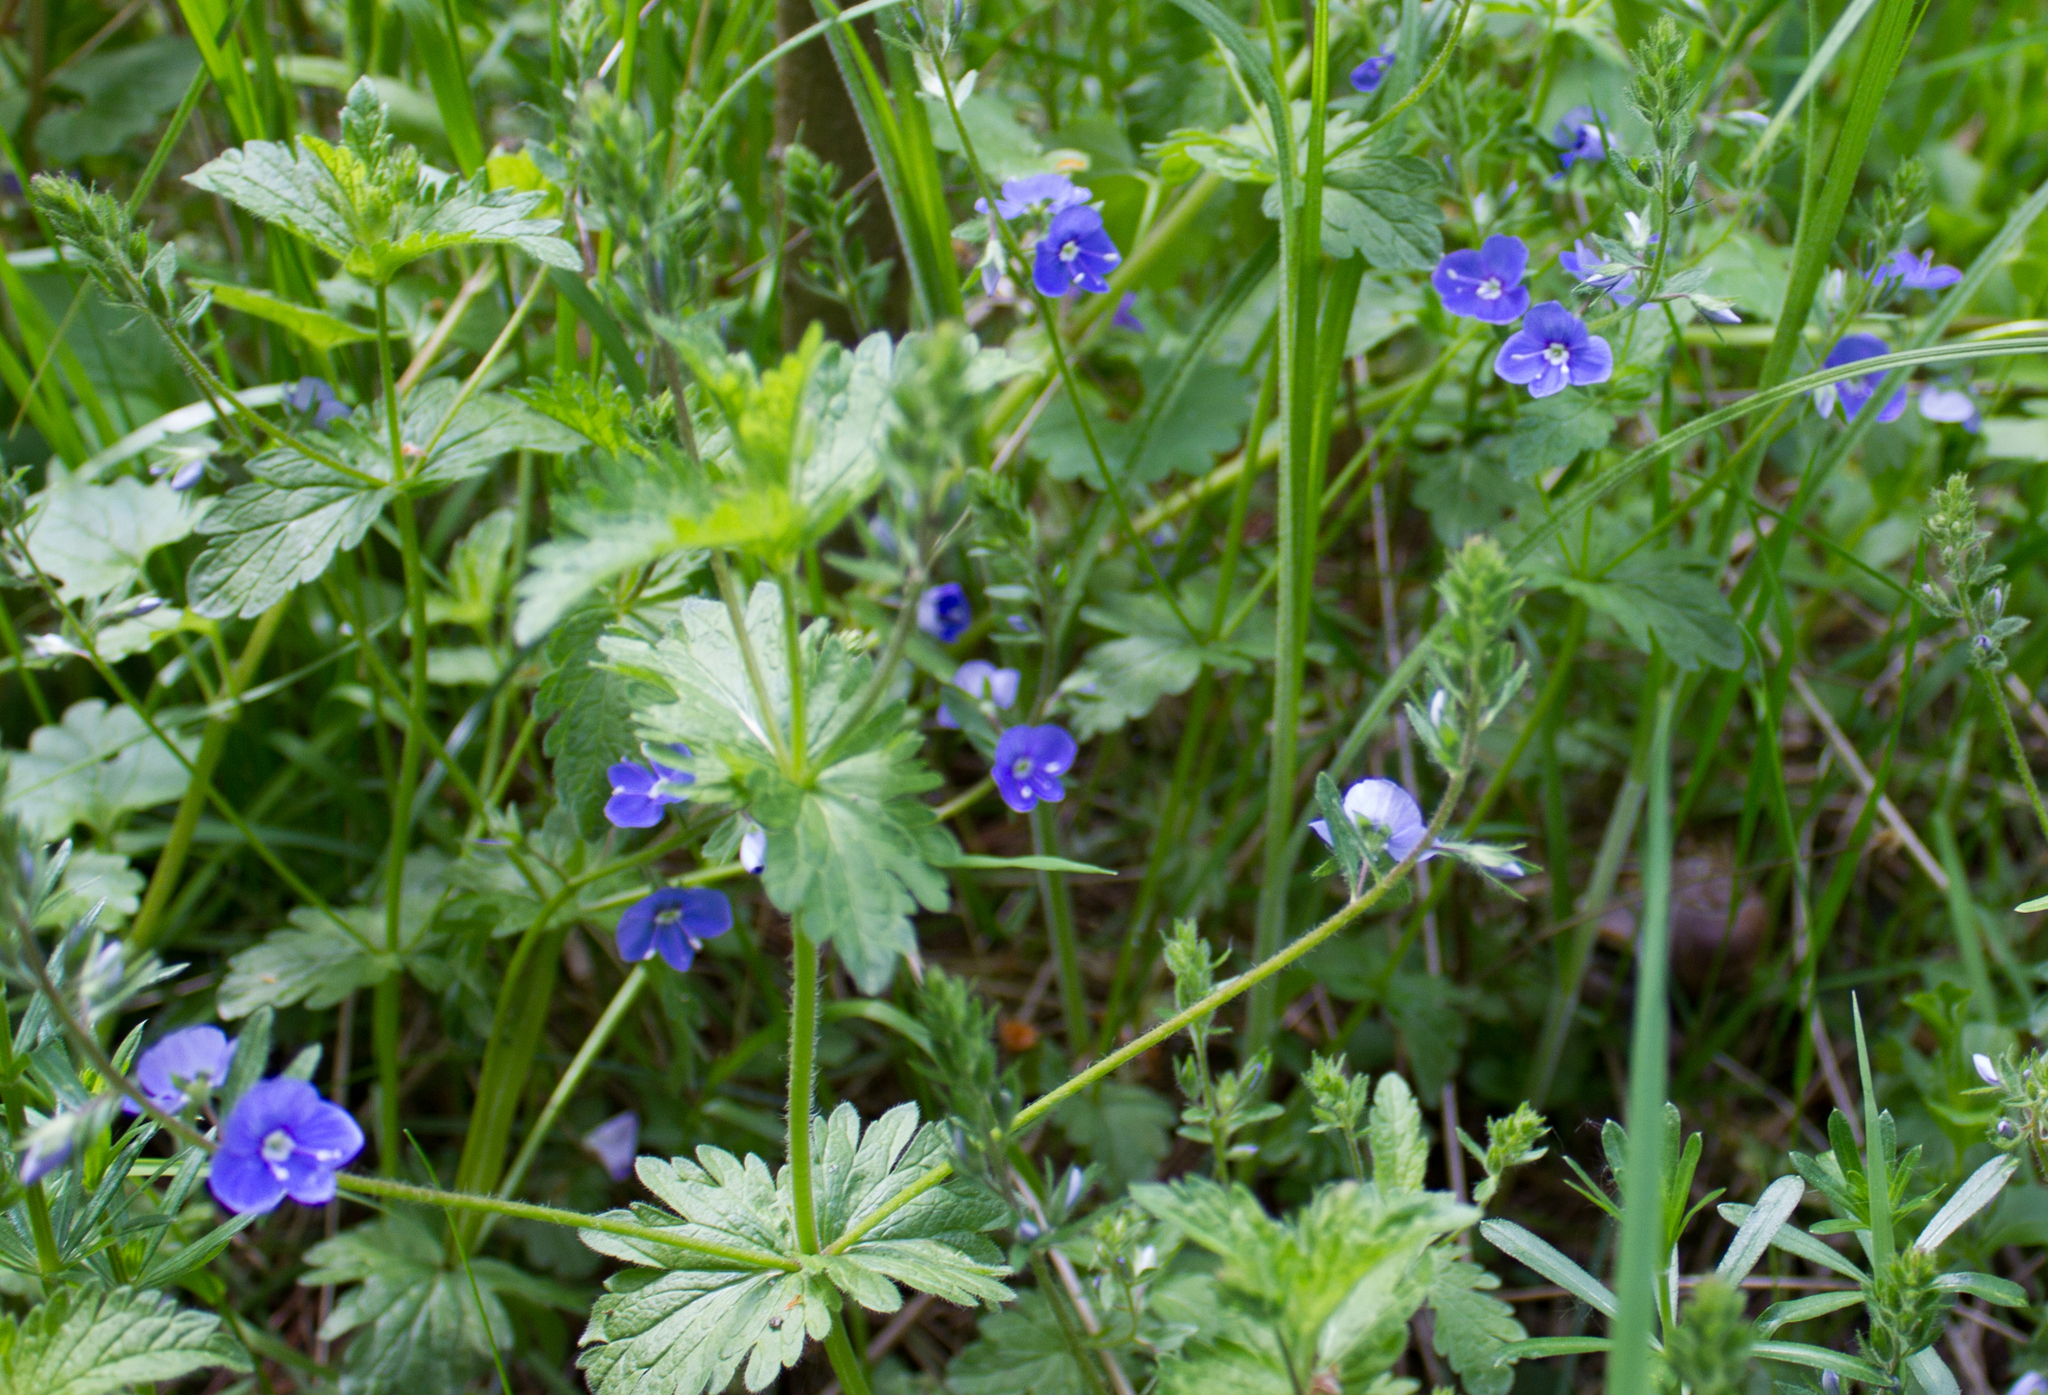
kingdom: Plantae
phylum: Tracheophyta
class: Magnoliopsida
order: Lamiales
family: Plantaginaceae
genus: Veronica
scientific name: Veronica chamaedrys
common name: Germander speedwell
